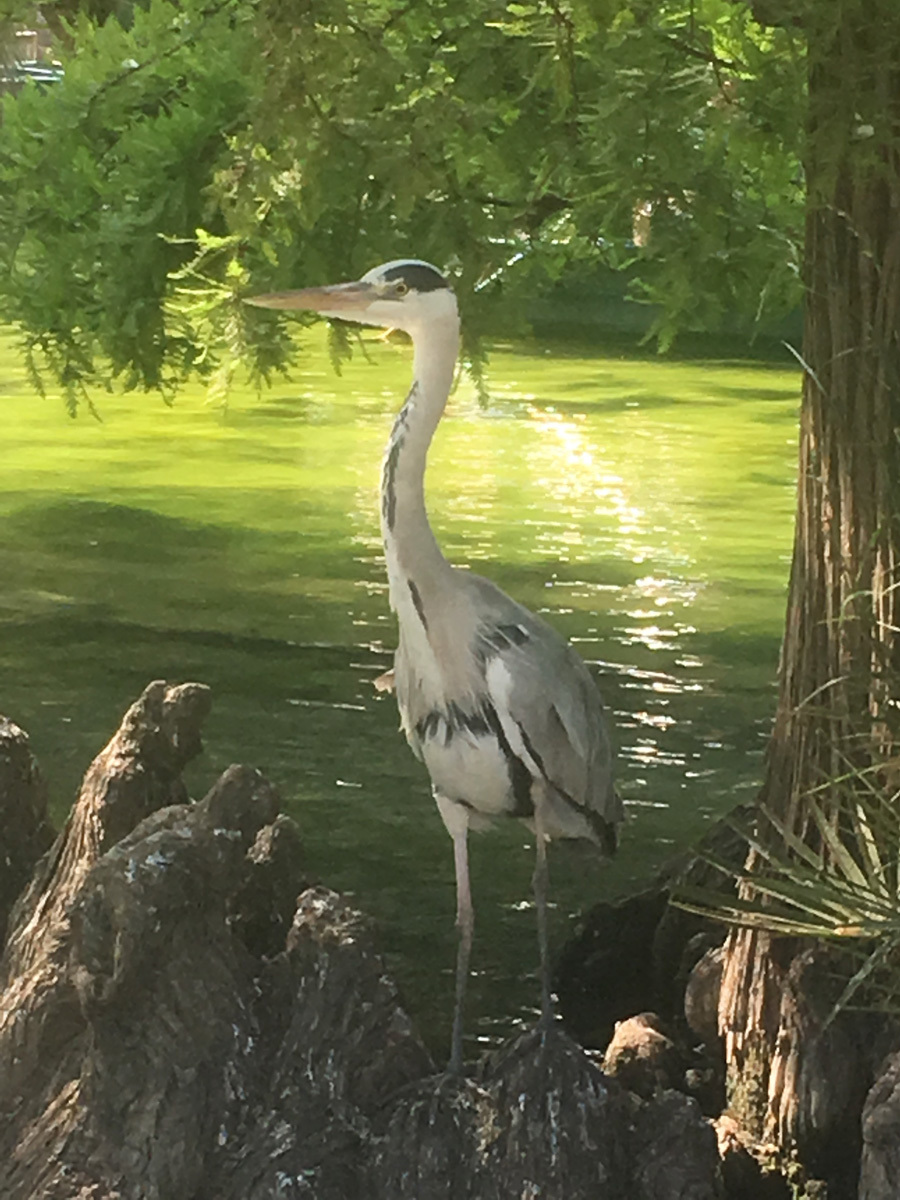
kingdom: Animalia
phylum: Chordata
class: Aves
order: Pelecaniformes
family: Ardeidae
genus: Ardea
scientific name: Ardea cinerea
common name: Grey heron
